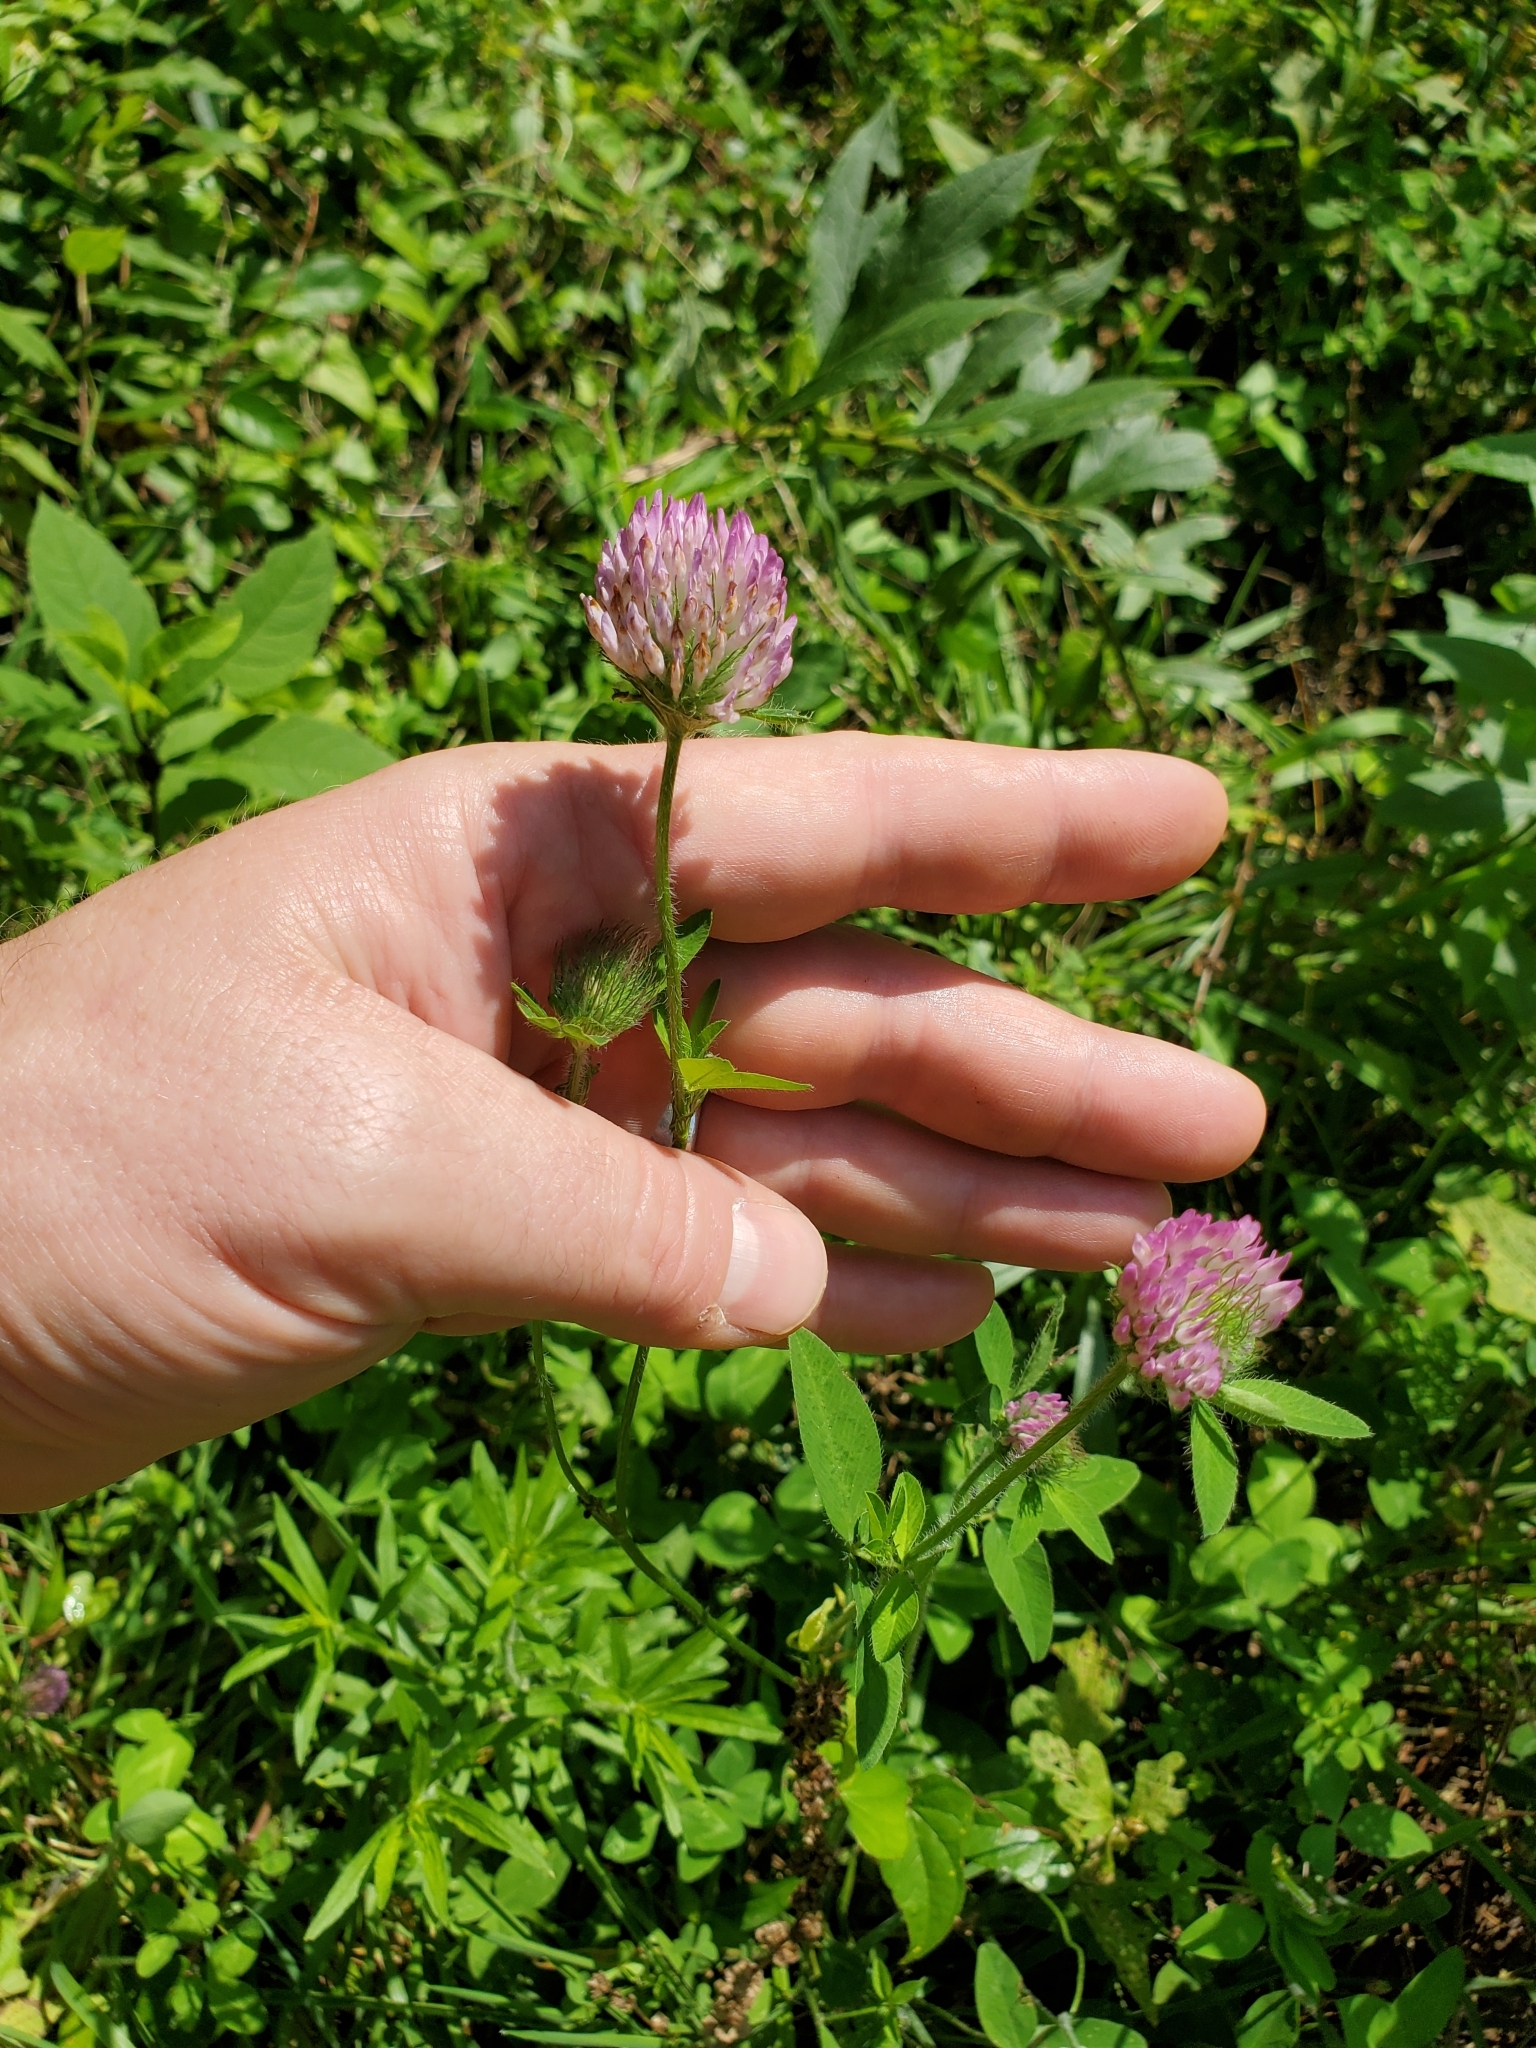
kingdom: Plantae
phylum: Tracheophyta
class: Magnoliopsida
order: Fabales
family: Fabaceae
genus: Trifolium
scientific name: Trifolium pratense
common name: Red clover
